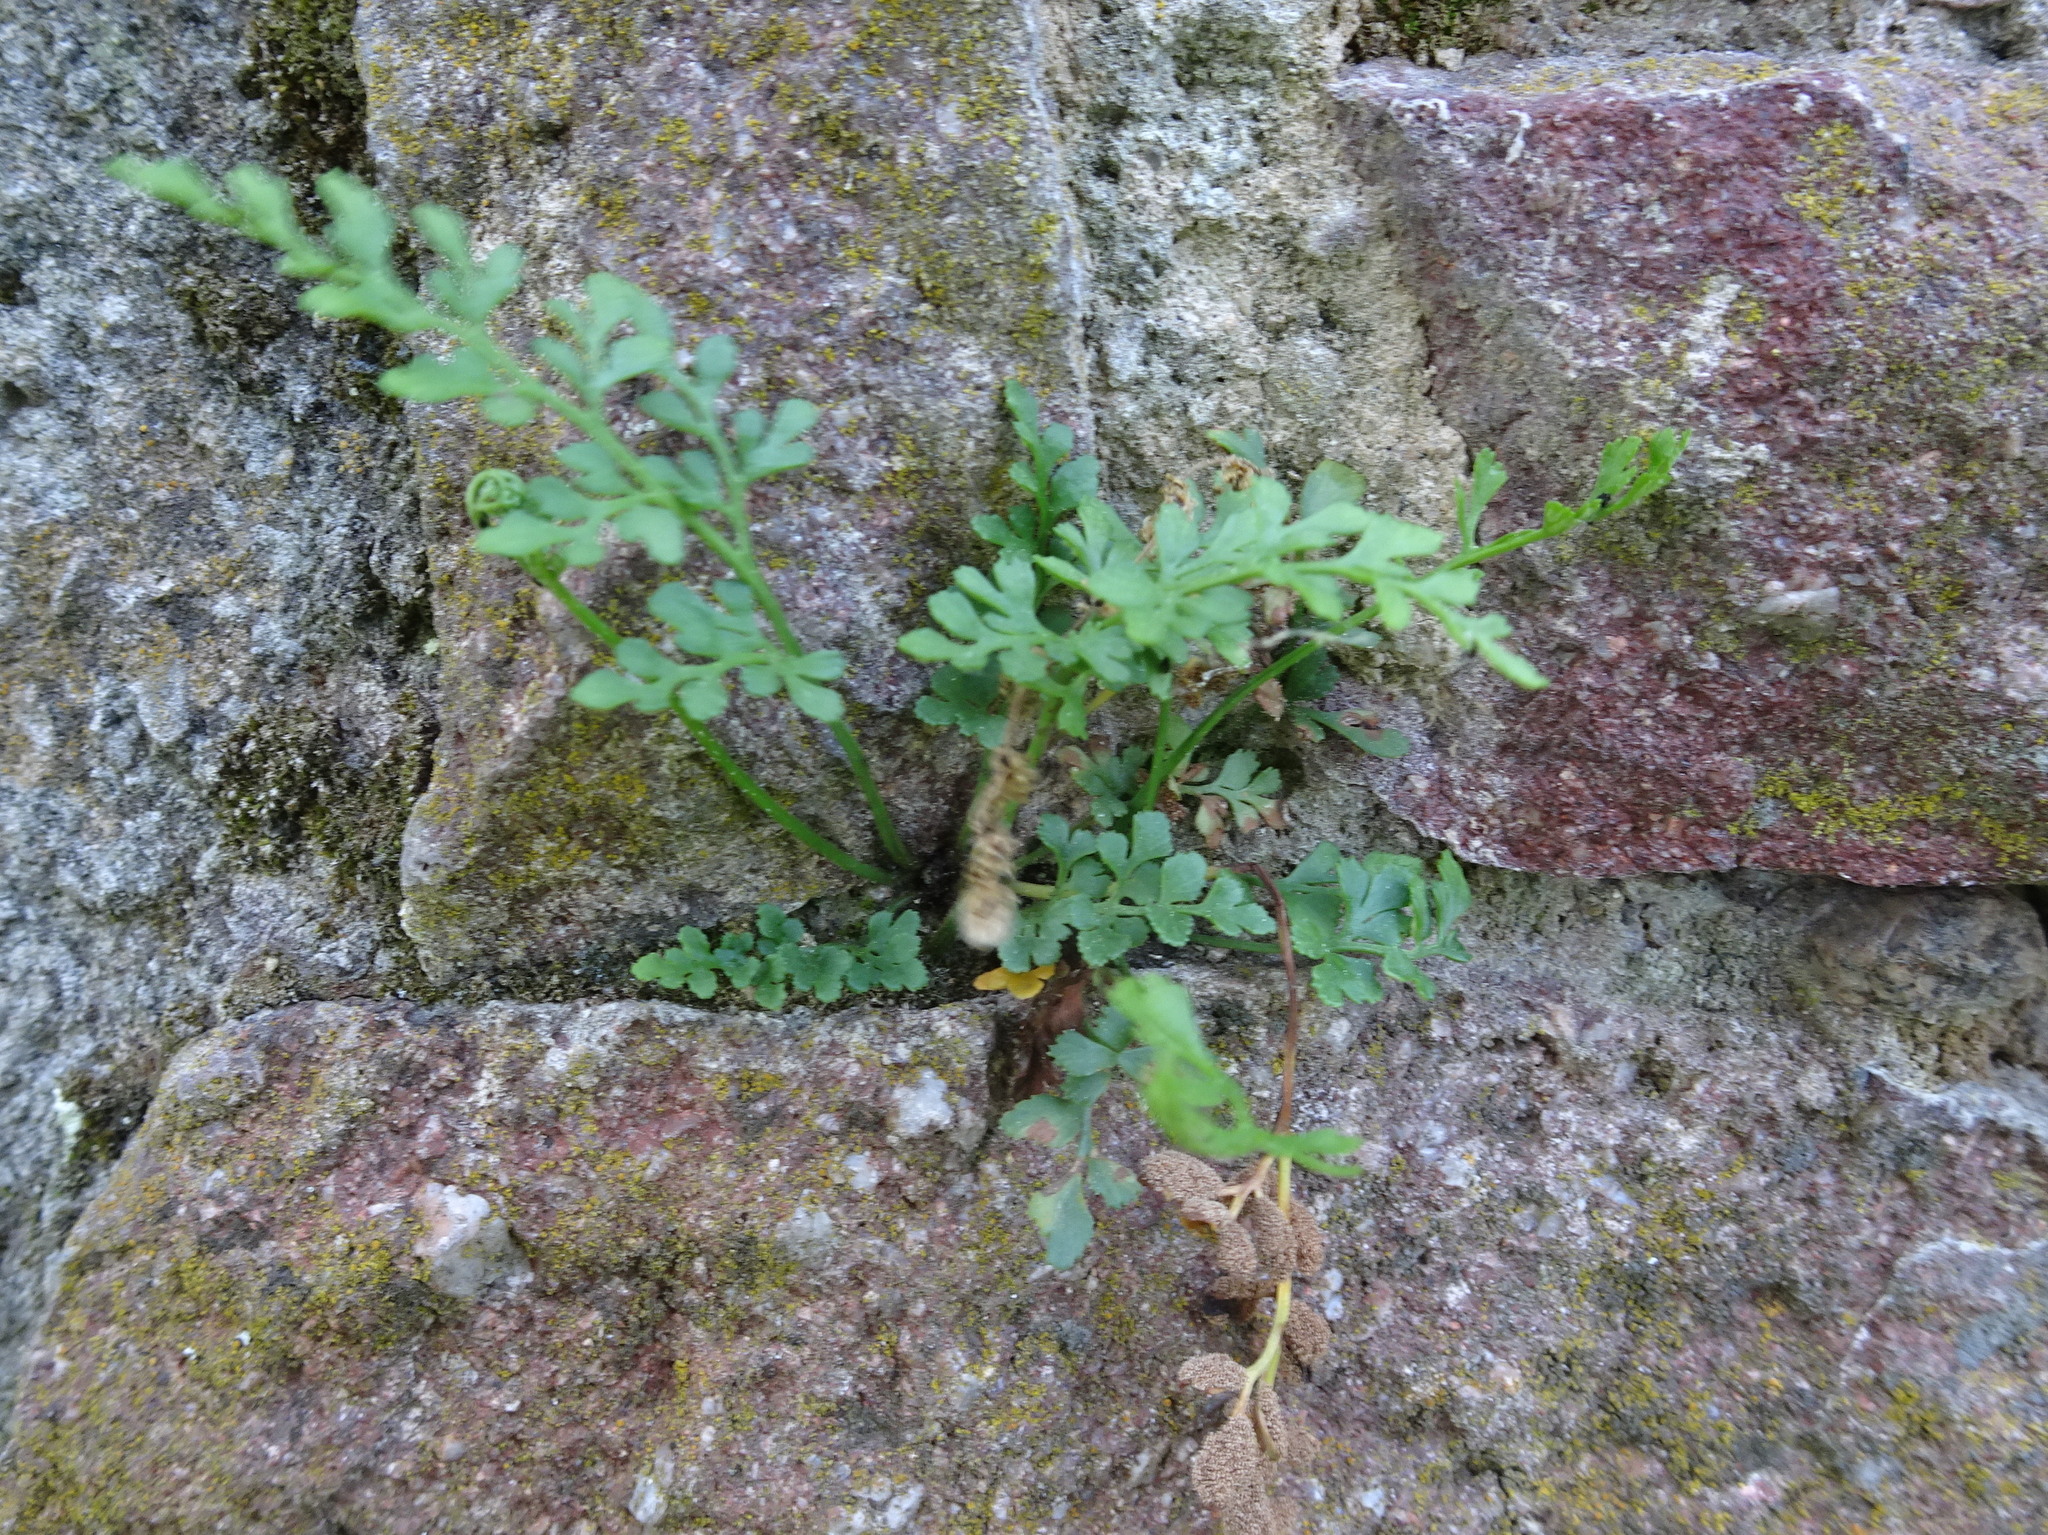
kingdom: Plantae
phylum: Tracheophyta
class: Polypodiopsida
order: Polypodiales
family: Aspleniaceae
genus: Asplenium
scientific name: Asplenium ruta-muraria
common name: Wall-rue
